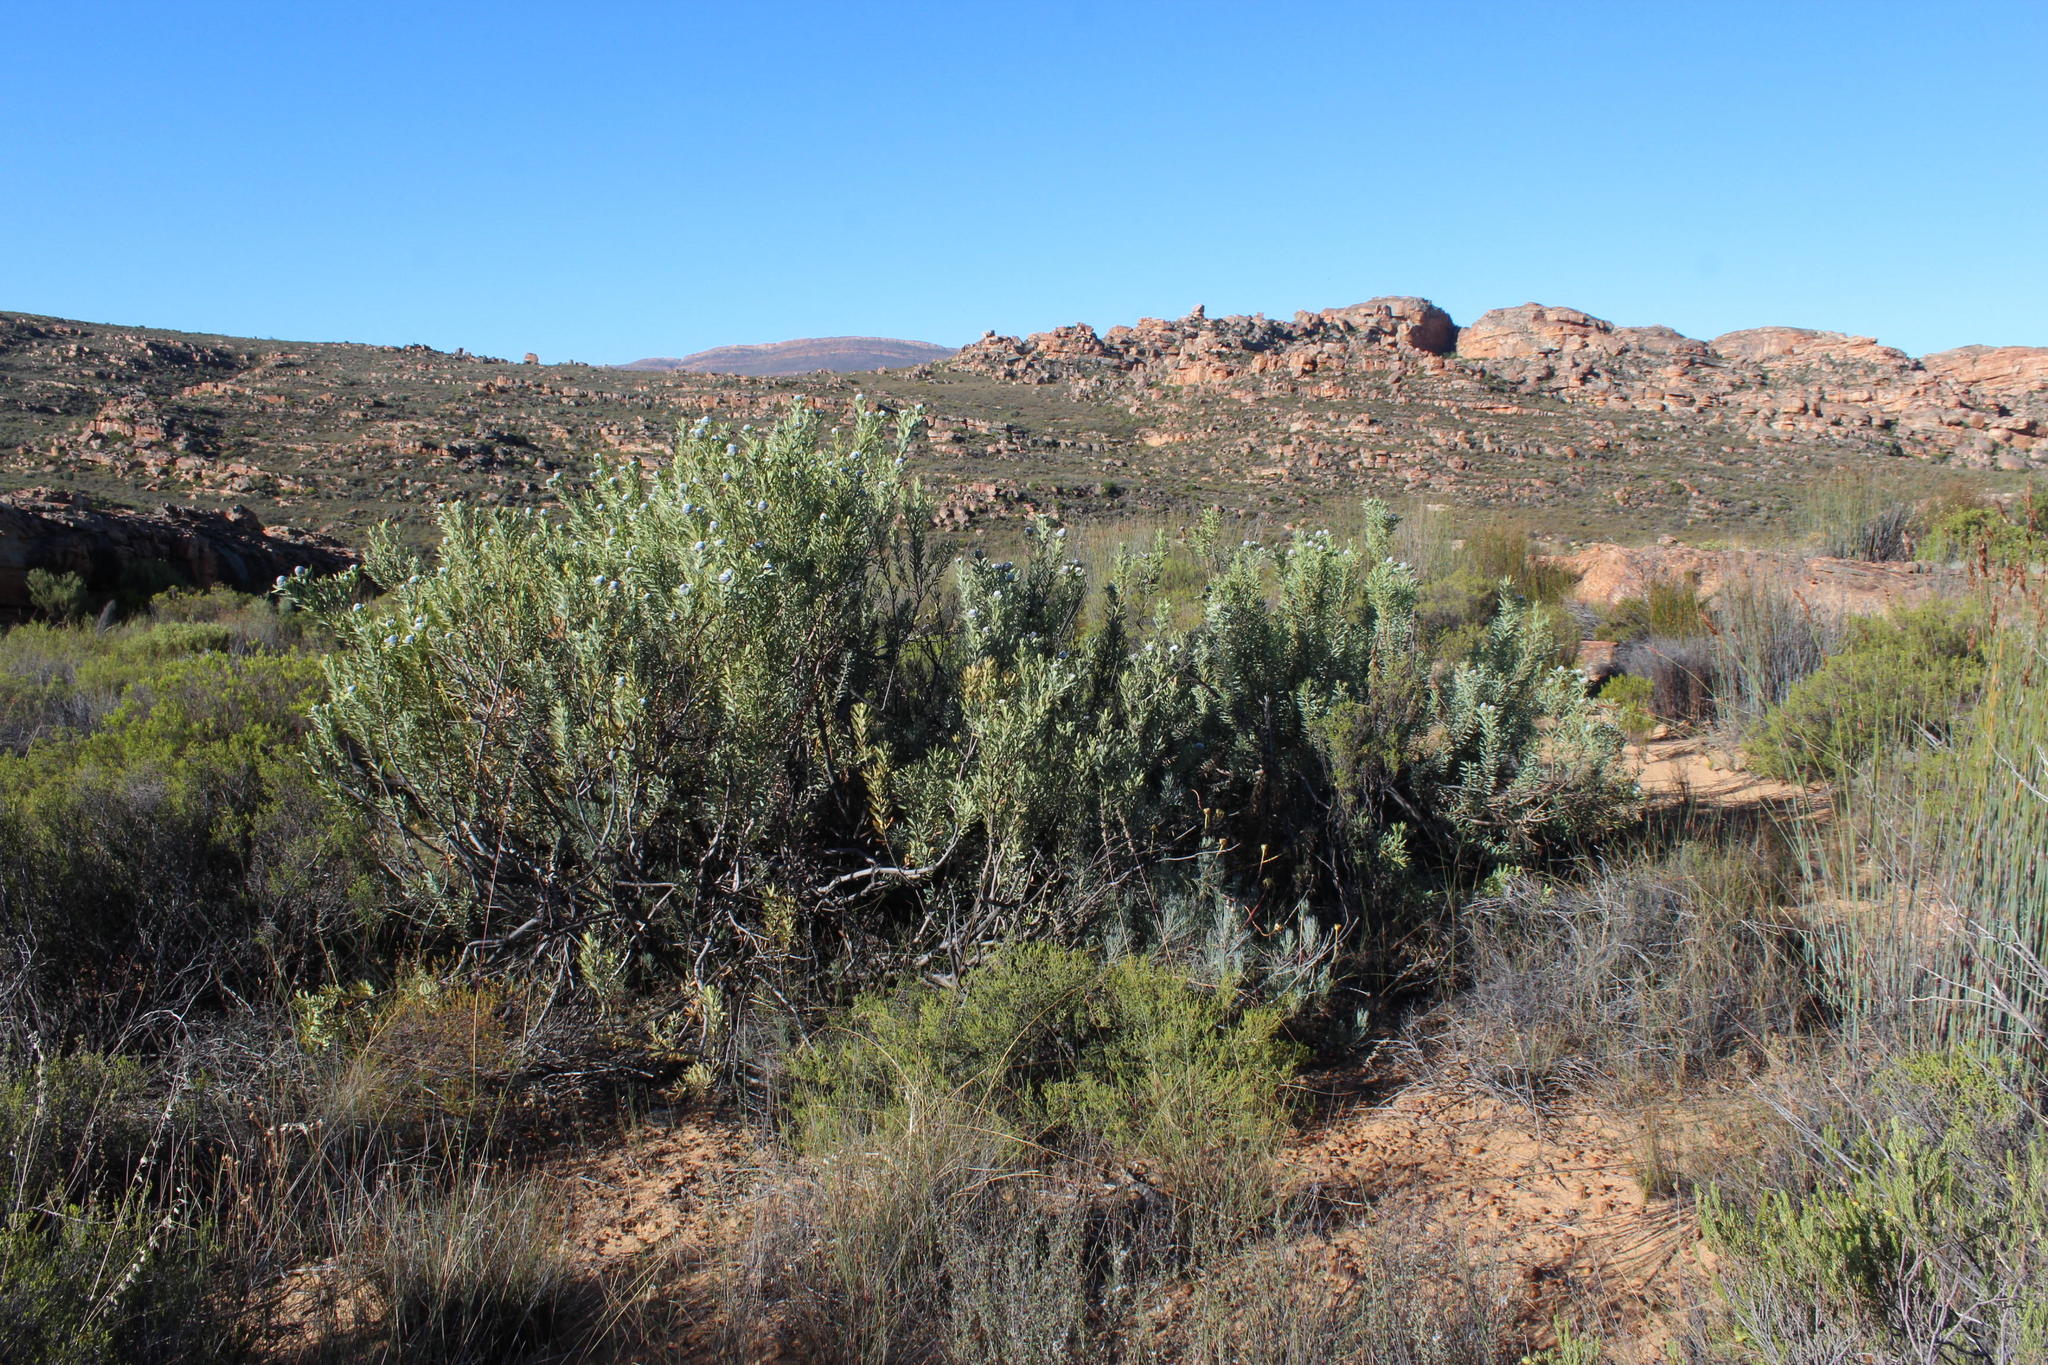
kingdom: Plantae
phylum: Tracheophyta
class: Magnoliopsida
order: Proteales
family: Proteaceae
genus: Leucadendron
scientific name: Leucadendron pubescens
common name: Grey conebush
